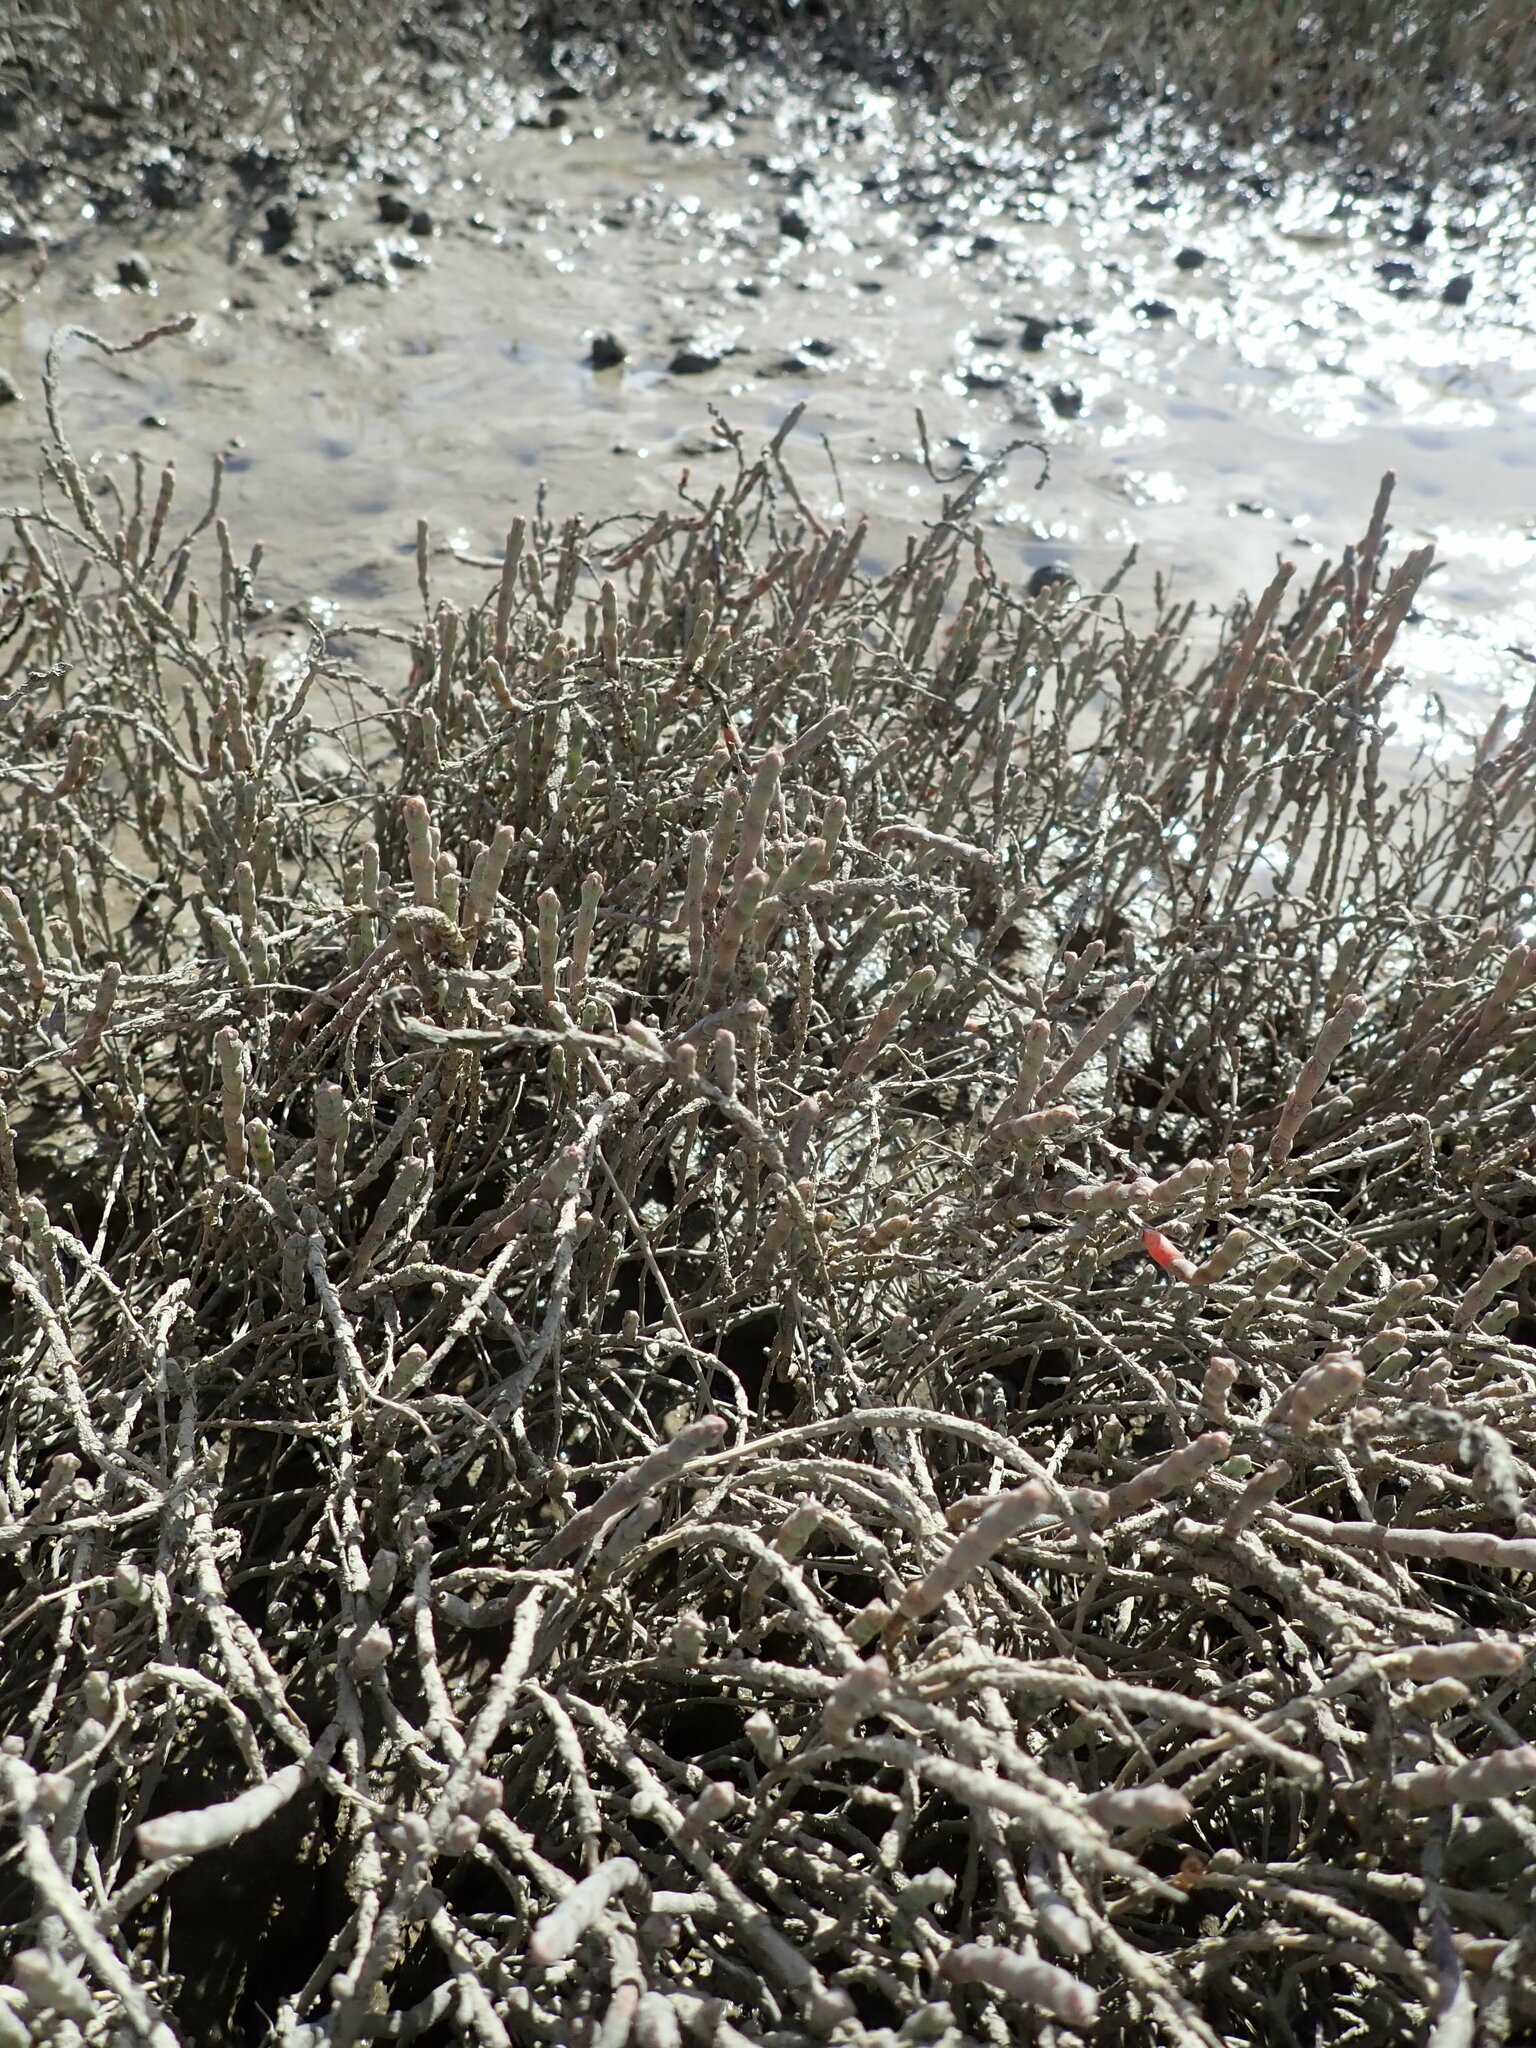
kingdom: Plantae
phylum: Tracheophyta
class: Magnoliopsida
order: Caryophyllales
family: Amaranthaceae
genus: Salicornia
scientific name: Salicornia quinqueflora
